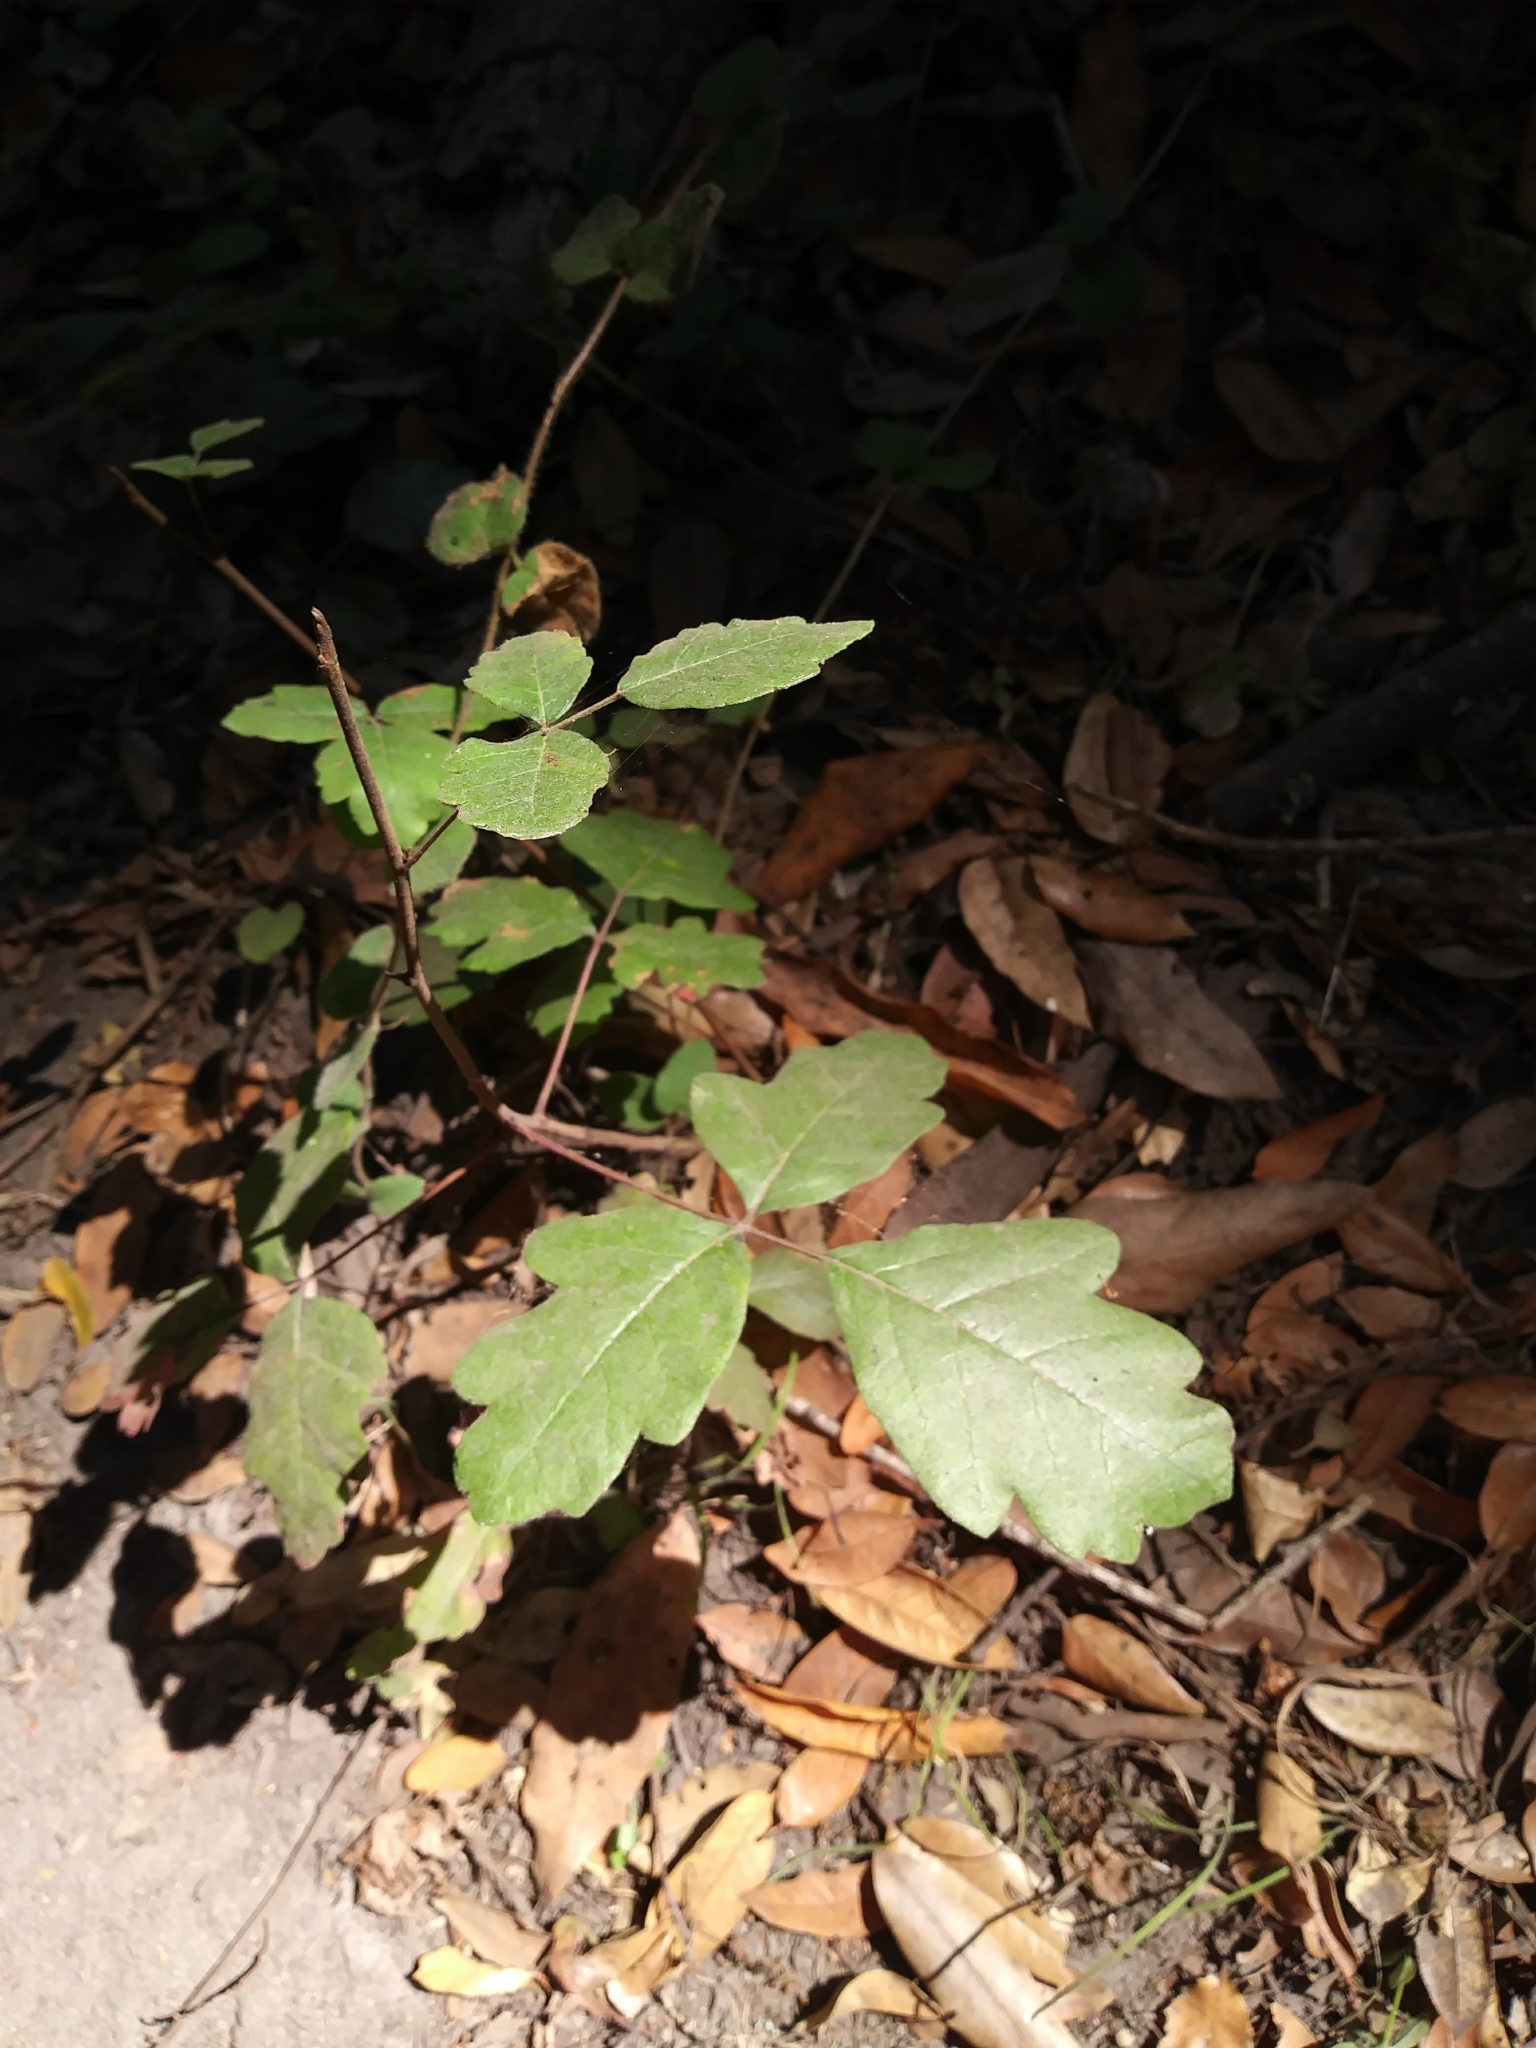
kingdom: Plantae
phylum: Tracheophyta
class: Magnoliopsida
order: Sapindales
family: Anacardiaceae
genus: Toxicodendron
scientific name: Toxicodendron diversilobum
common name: Pacific poison-oak
